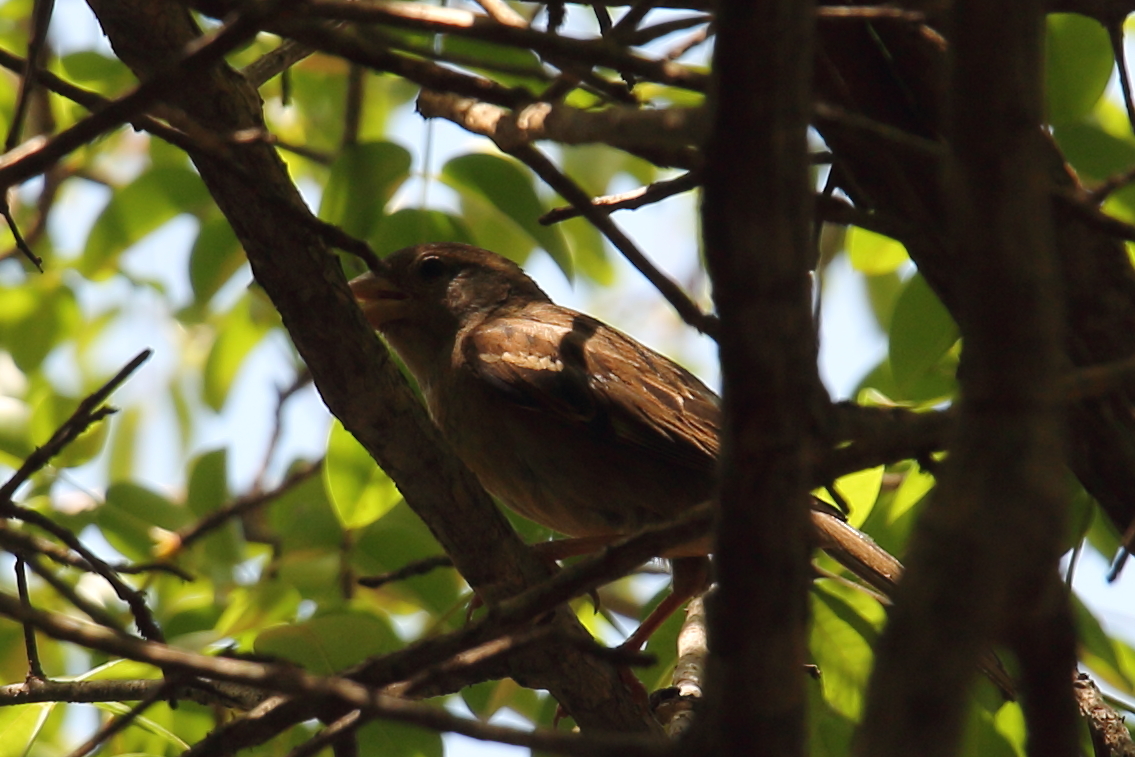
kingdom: Animalia
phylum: Chordata
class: Aves
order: Passeriformes
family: Passeridae
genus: Passer
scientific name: Passer domesticus
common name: House sparrow
